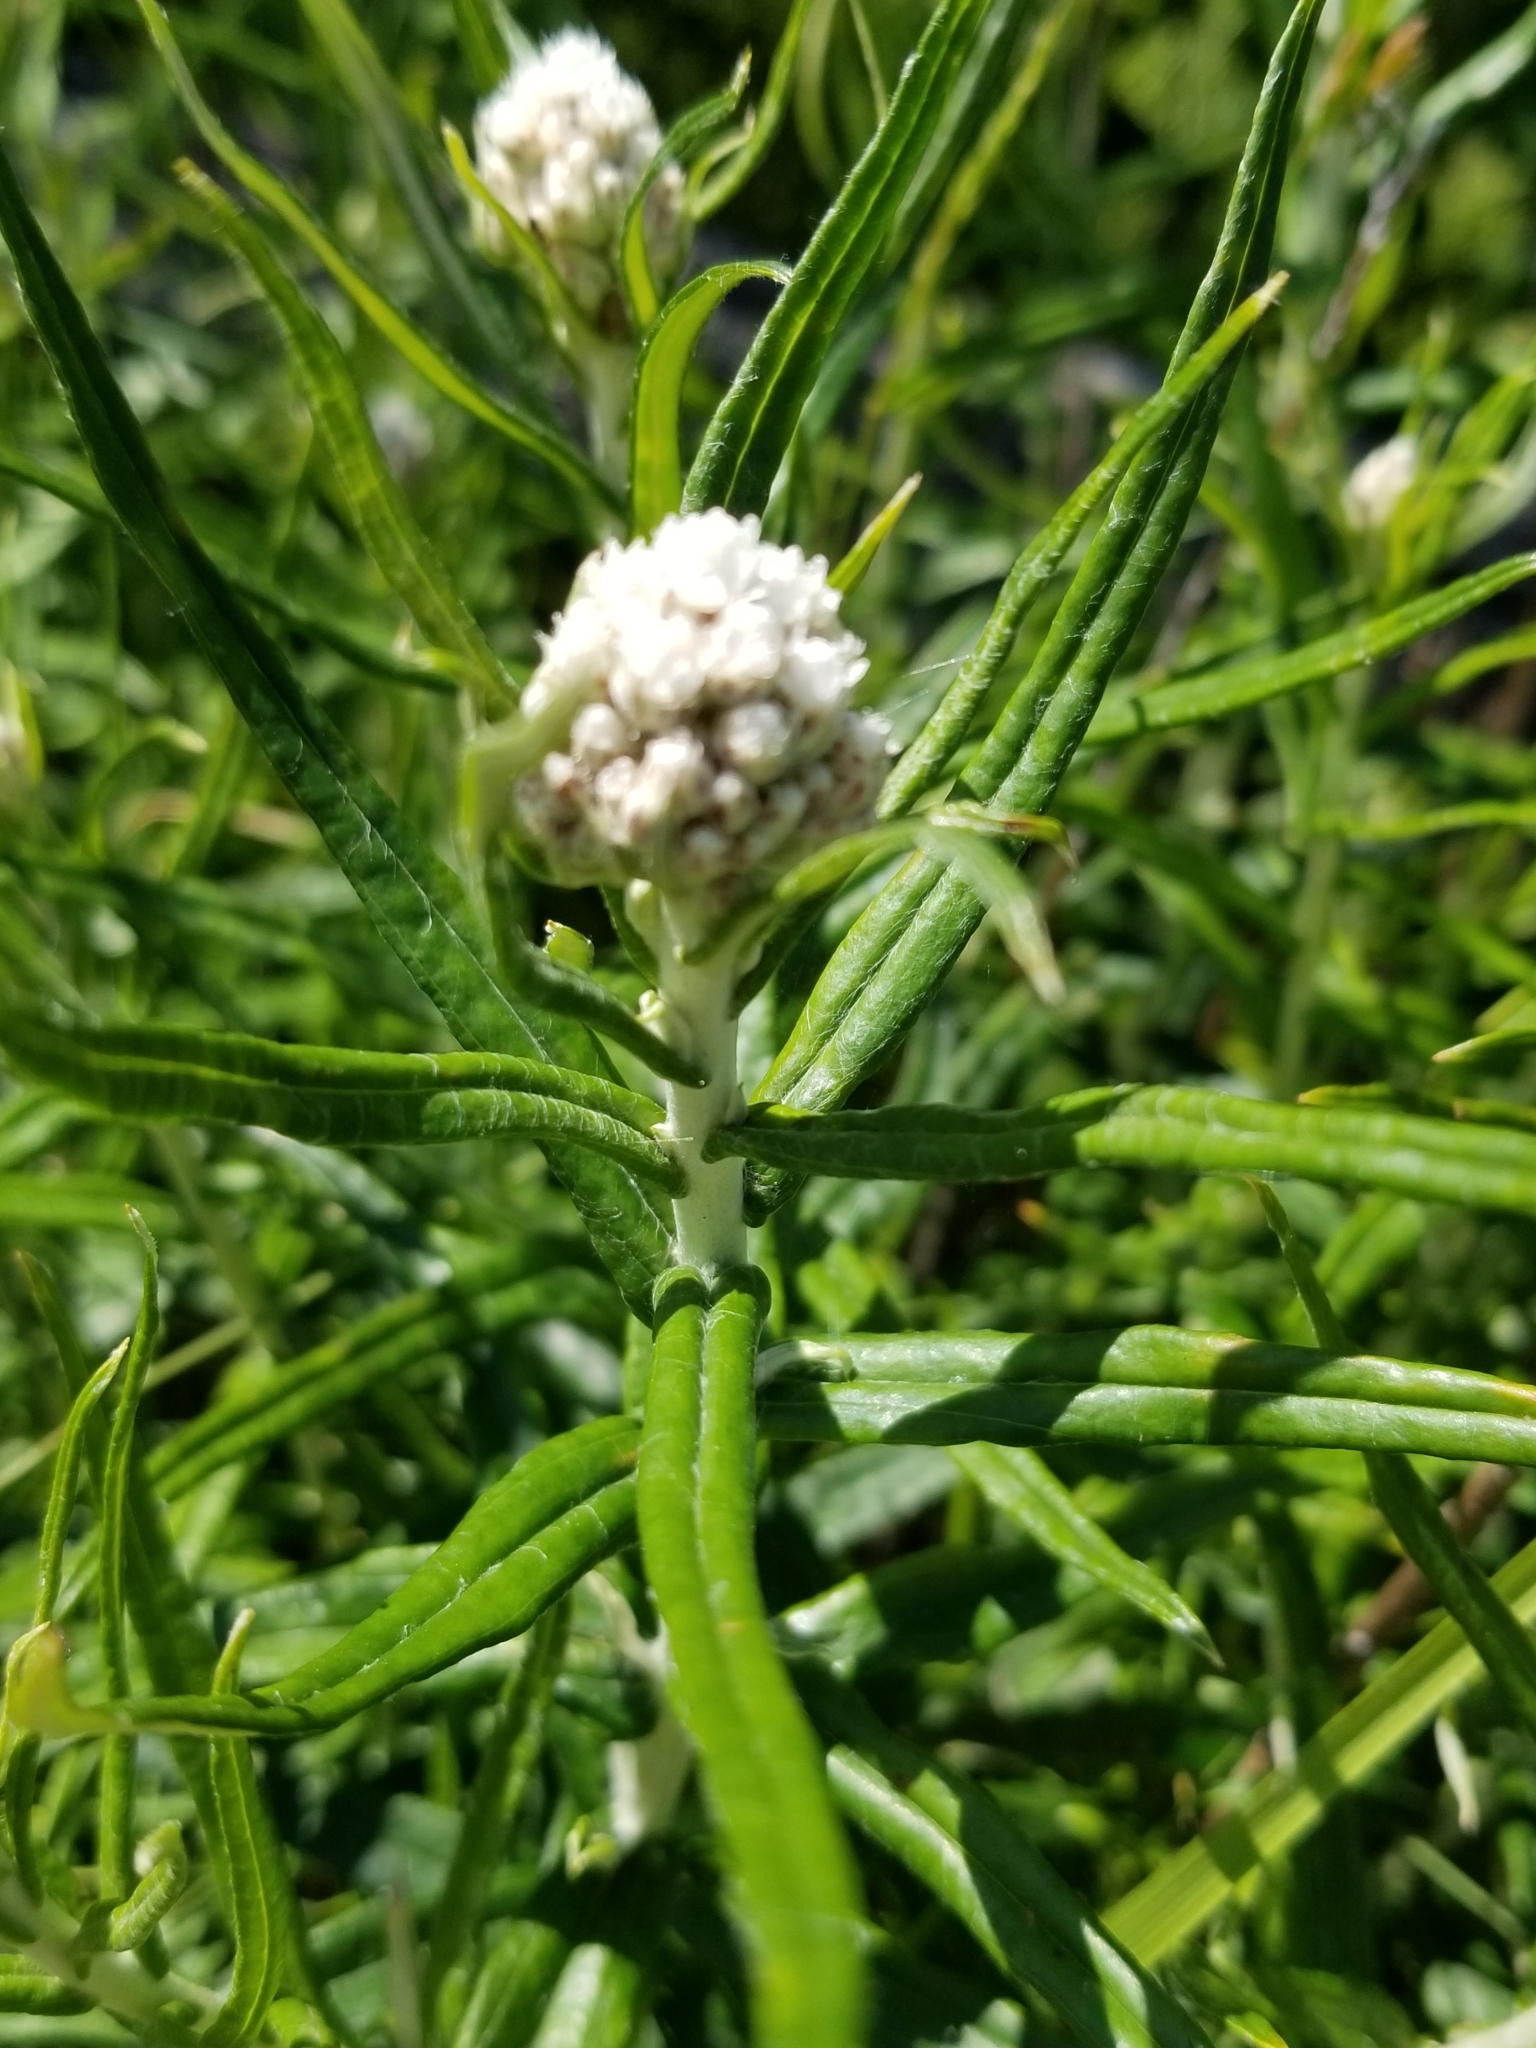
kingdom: Plantae
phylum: Tracheophyta
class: Magnoliopsida
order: Asterales
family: Asteraceae
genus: Anaphalis
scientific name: Anaphalis margaritacea
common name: Pearly everlasting
